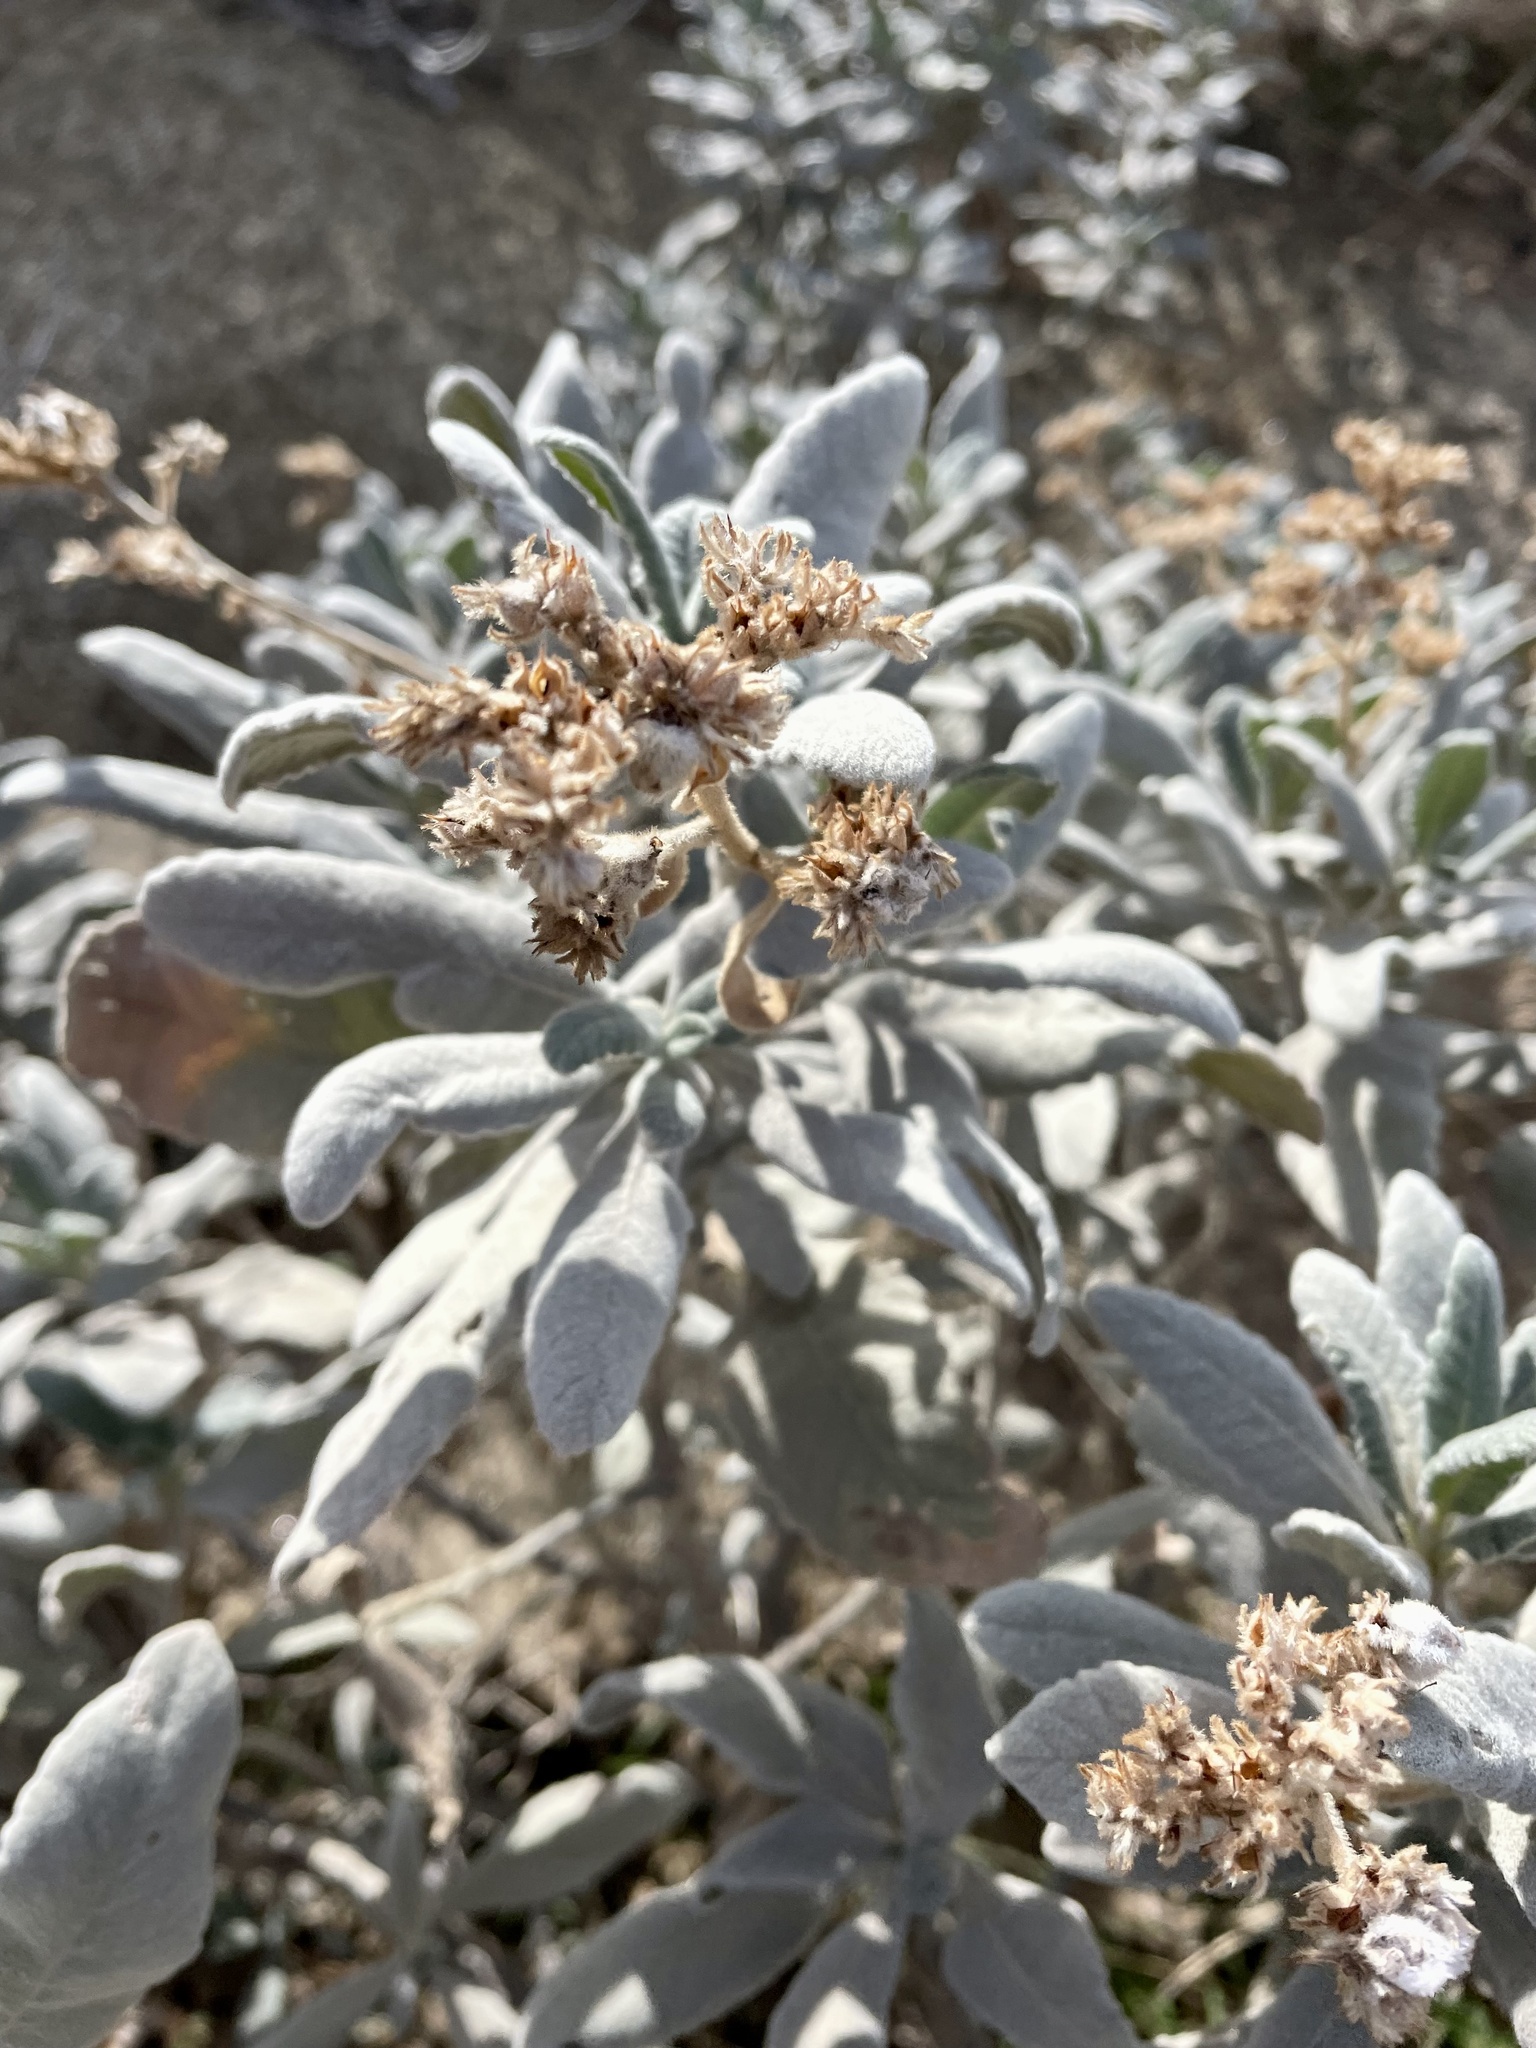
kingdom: Plantae
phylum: Tracheophyta
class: Magnoliopsida
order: Boraginales
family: Namaceae
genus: Eriodictyon
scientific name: Eriodictyon crassifolium
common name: Thick-leaf yerba-santa
